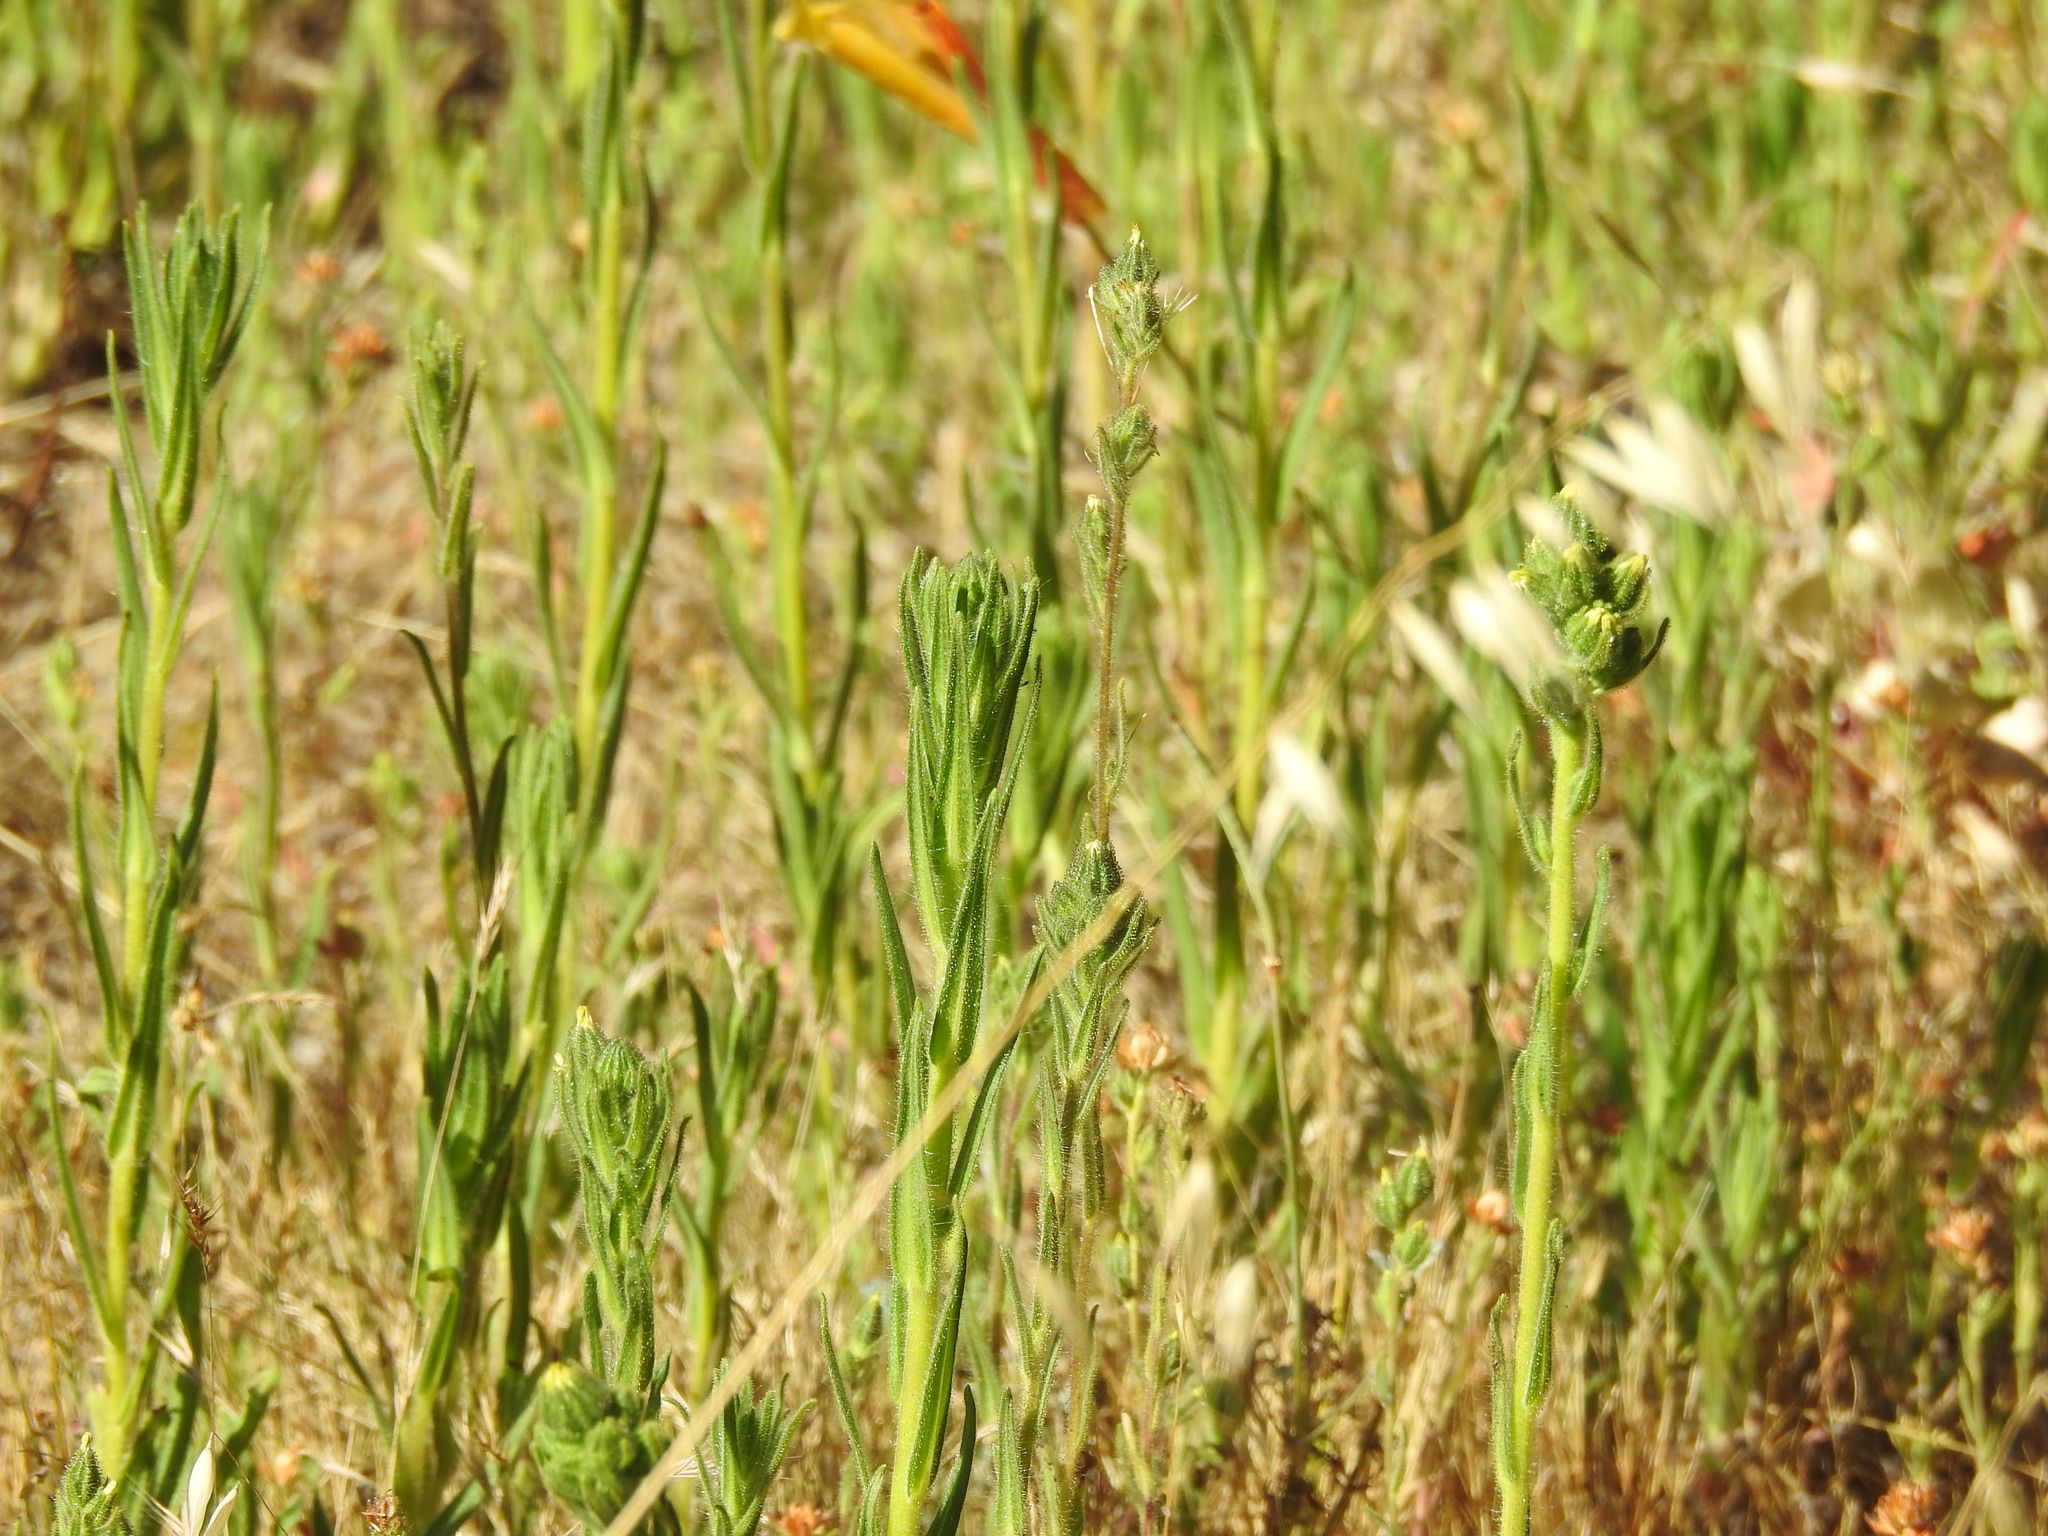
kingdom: Plantae
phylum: Tracheophyta
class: Magnoliopsida
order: Asterales
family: Asteraceae
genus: Madia
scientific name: Madia sativa
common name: Coast tarweed
